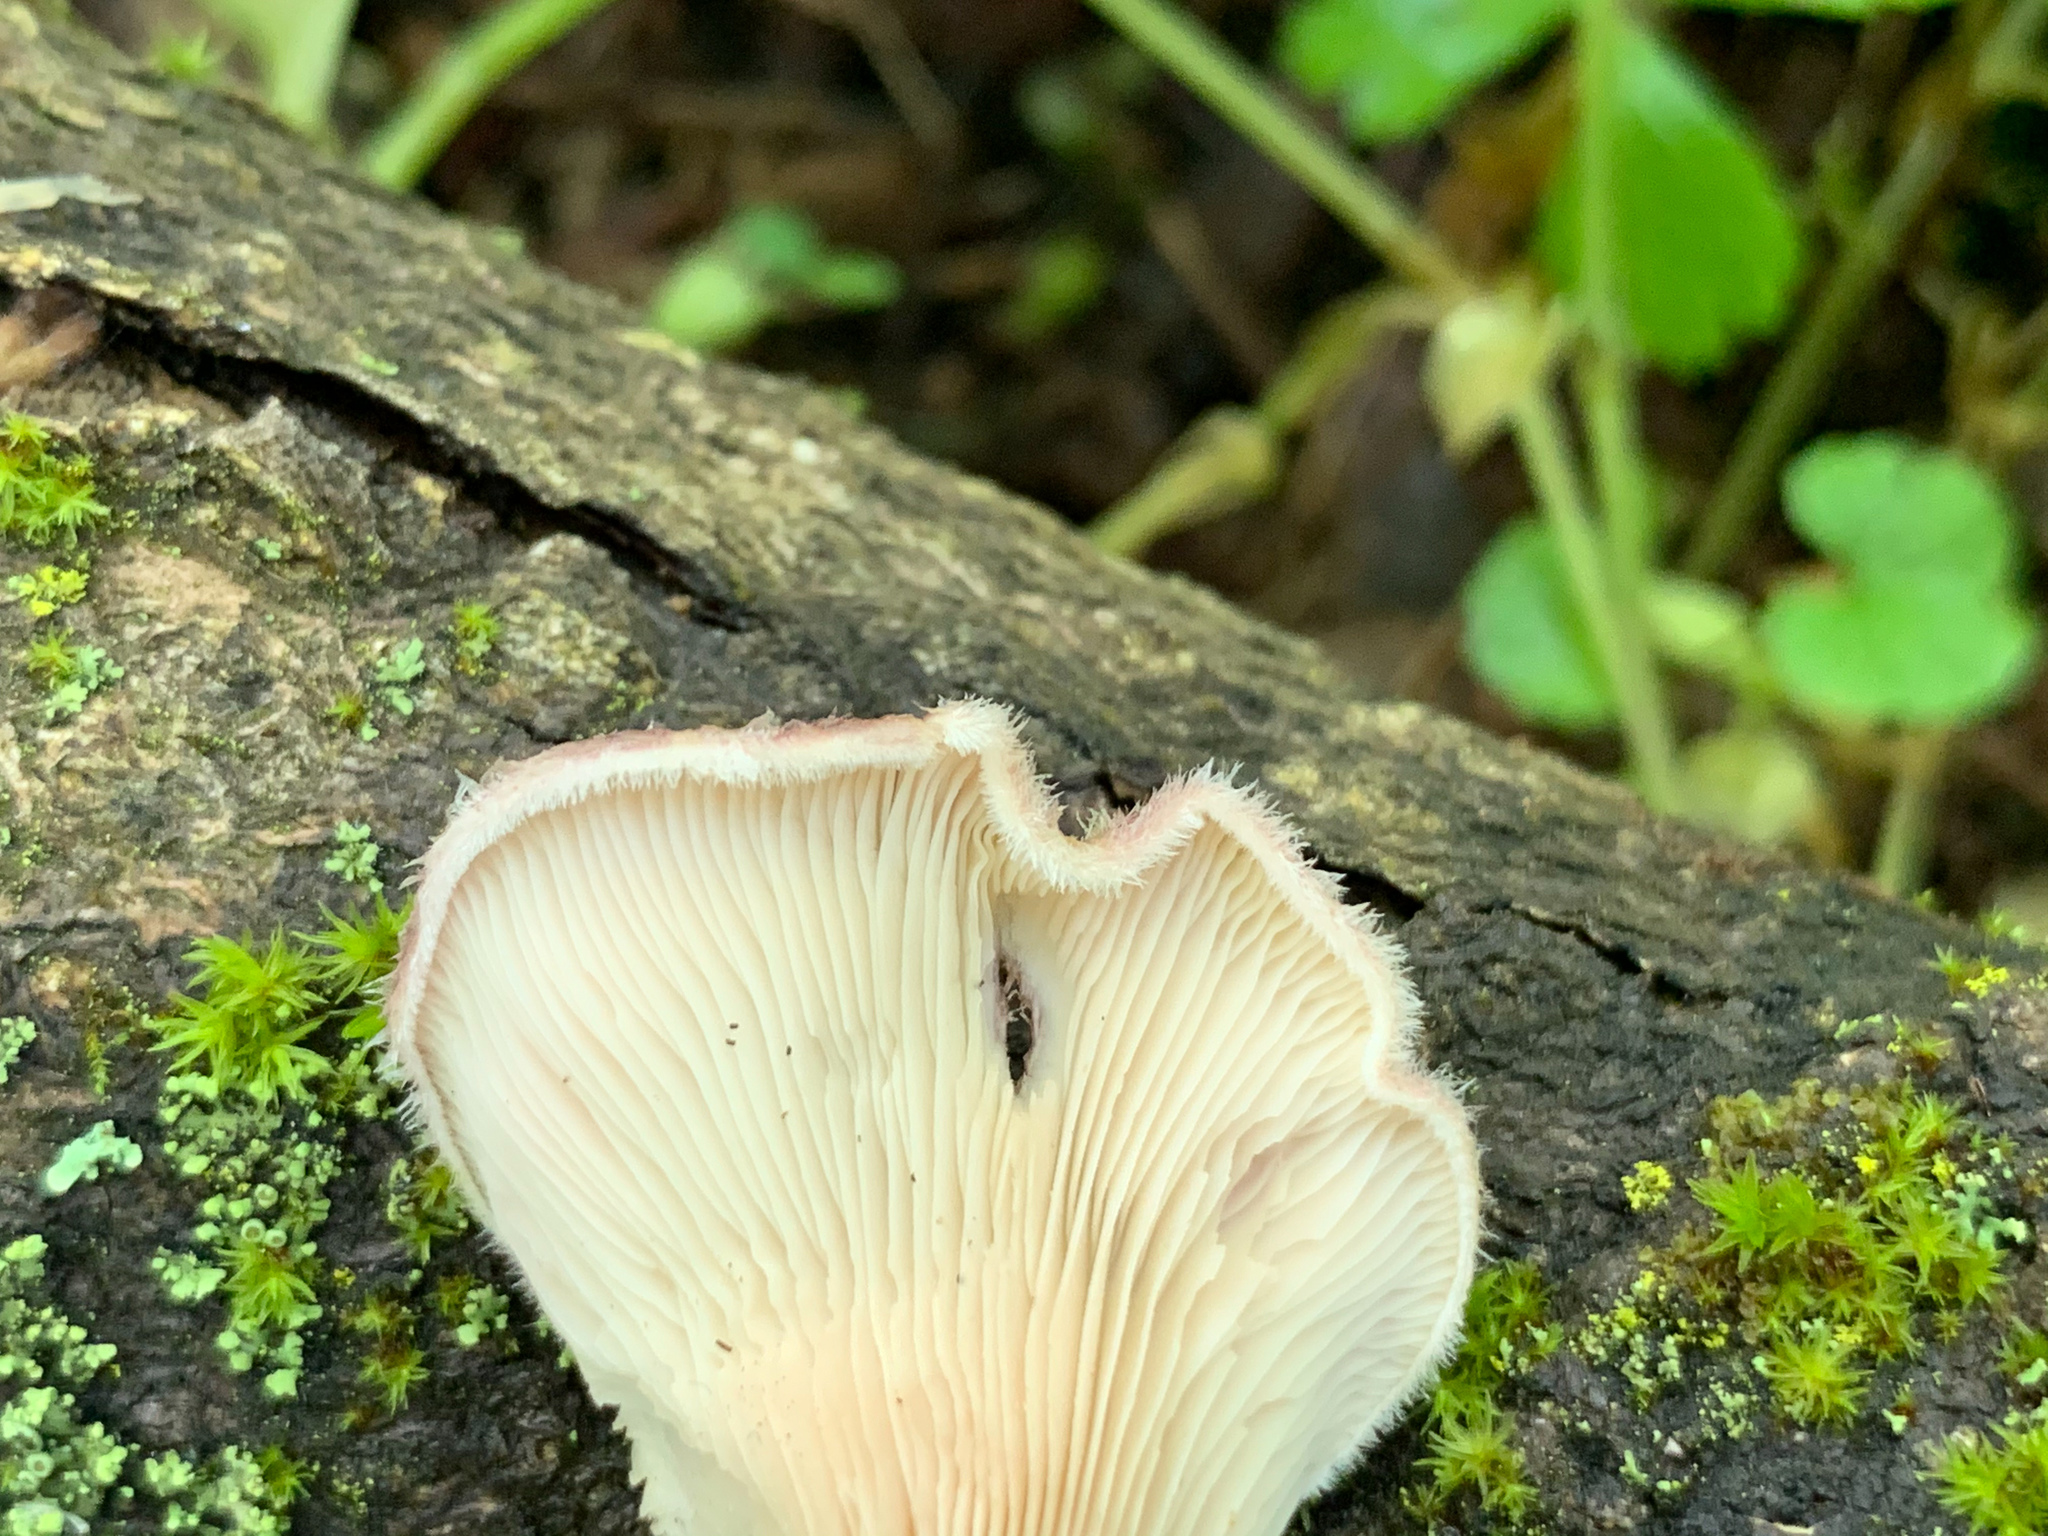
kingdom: Fungi
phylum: Basidiomycota
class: Agaricomycetes
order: Polyporales
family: Panaceae
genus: Panus
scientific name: Panus neostrigosus
